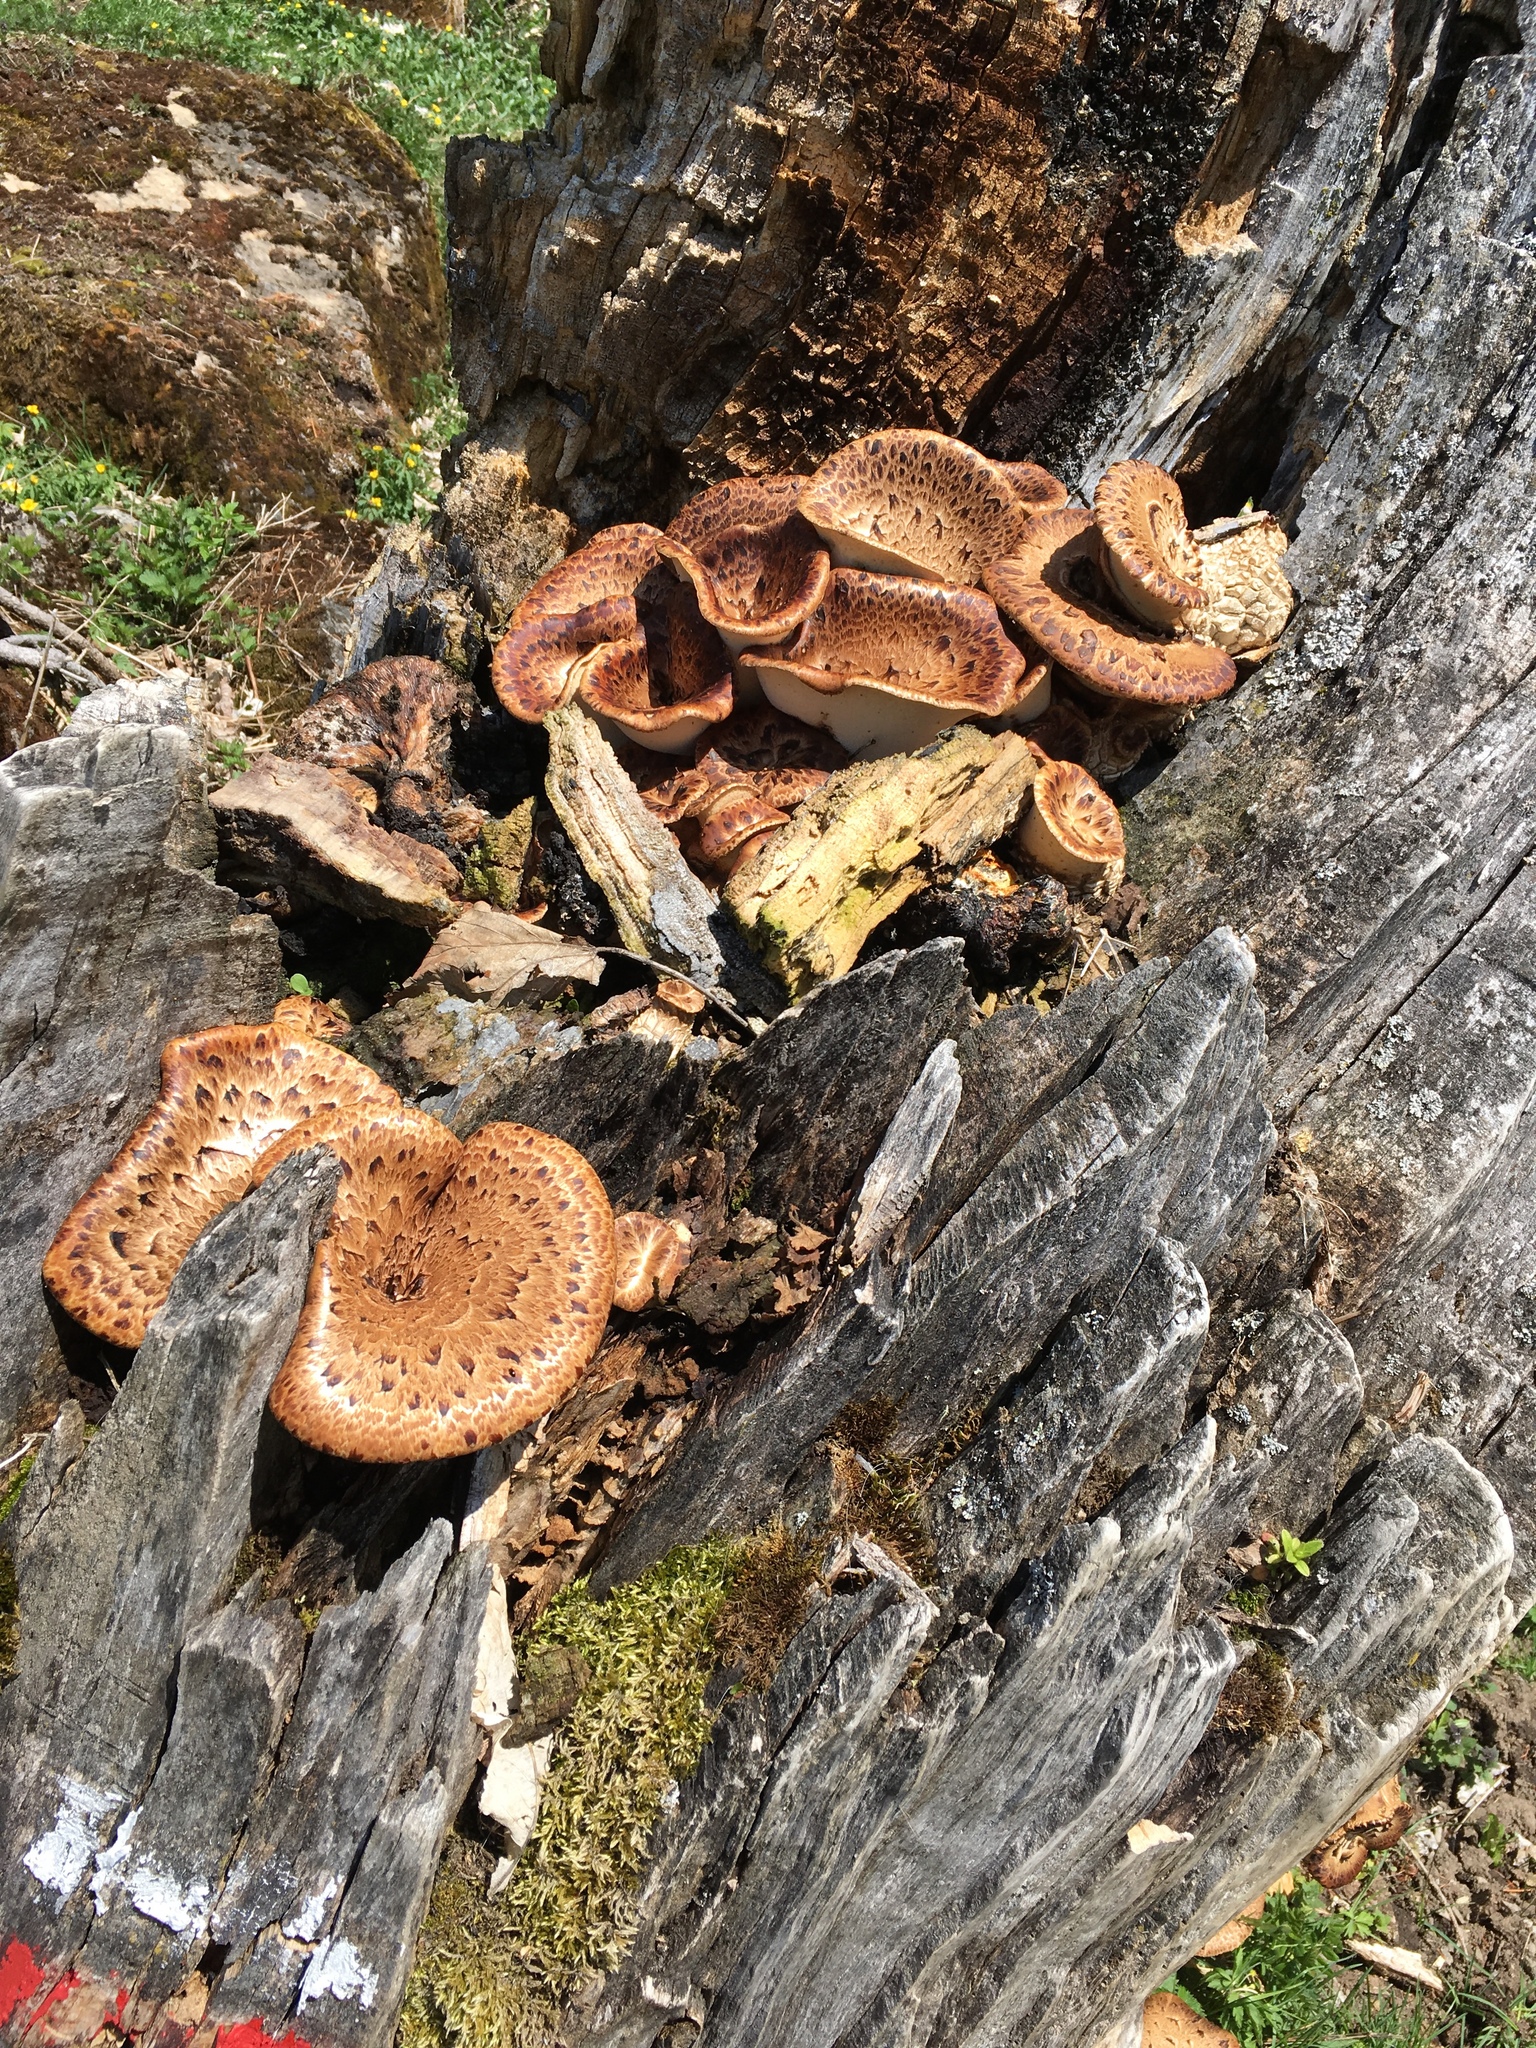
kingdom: Fungi
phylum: Basidiomycota
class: Agaricomycetes
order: Polyporales
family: Polyporaceae
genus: Cerioporus
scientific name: Cerioporus squamosus
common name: Dryad's saddle
